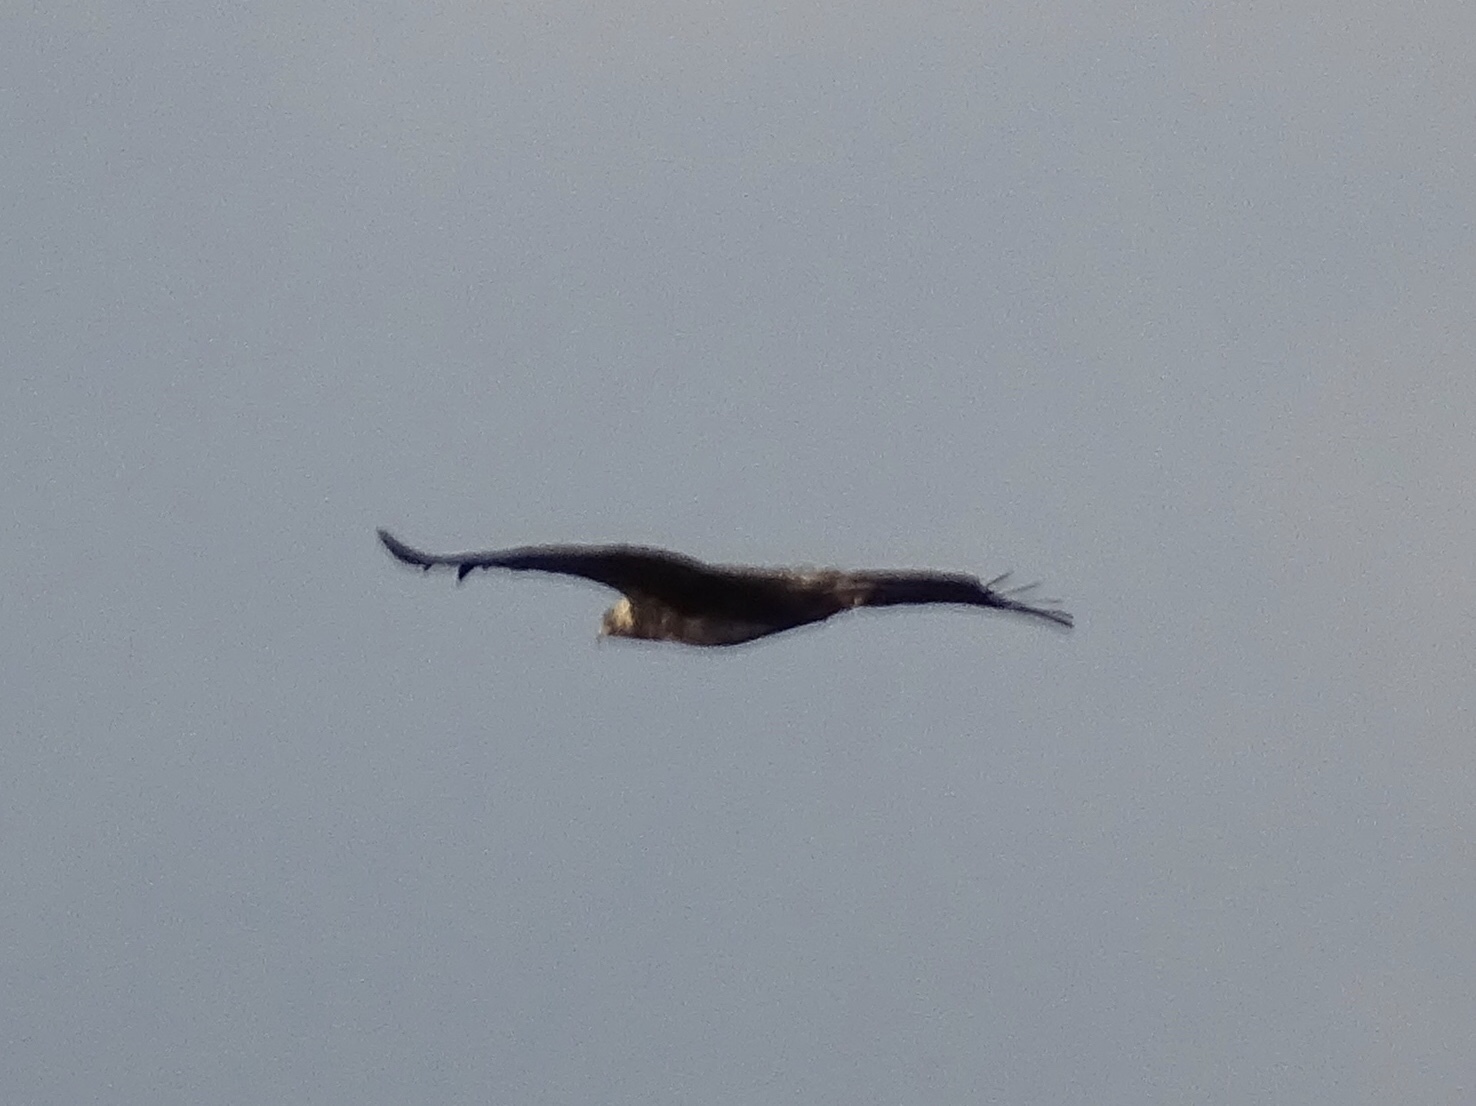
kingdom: Animalia
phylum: Chordata
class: Aves
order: Accipitriformes
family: Accipitridae
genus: Aquila
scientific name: Aquila chrysaetos
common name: Golden eagle
